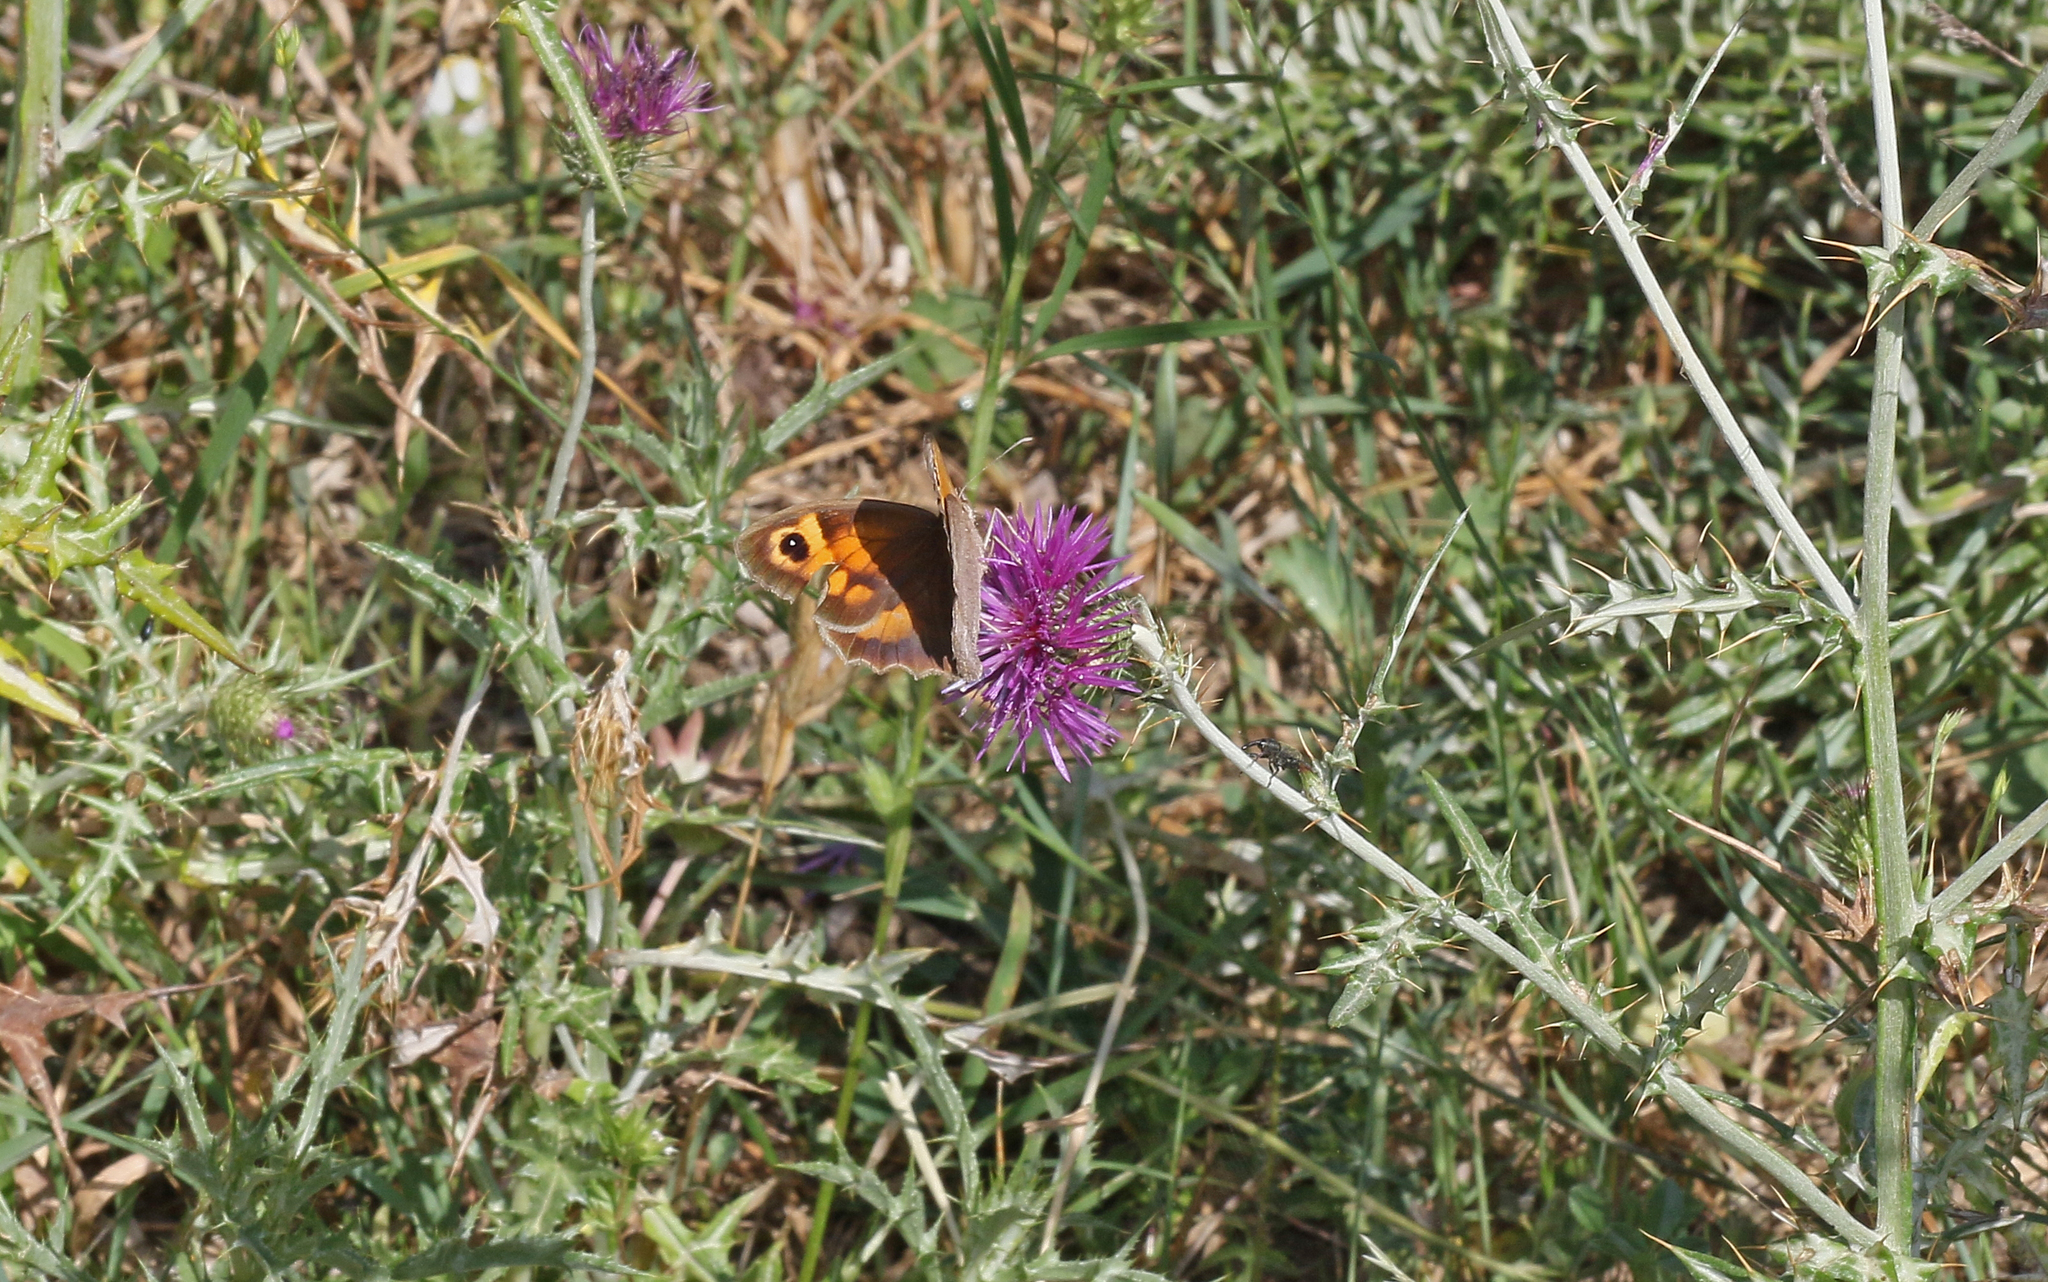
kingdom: Animalia
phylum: Arthropoda
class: Insecta
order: Lepidoptera
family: Nymphalidae
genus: Maniola
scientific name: Maniola jurtina
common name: Meadow brown
